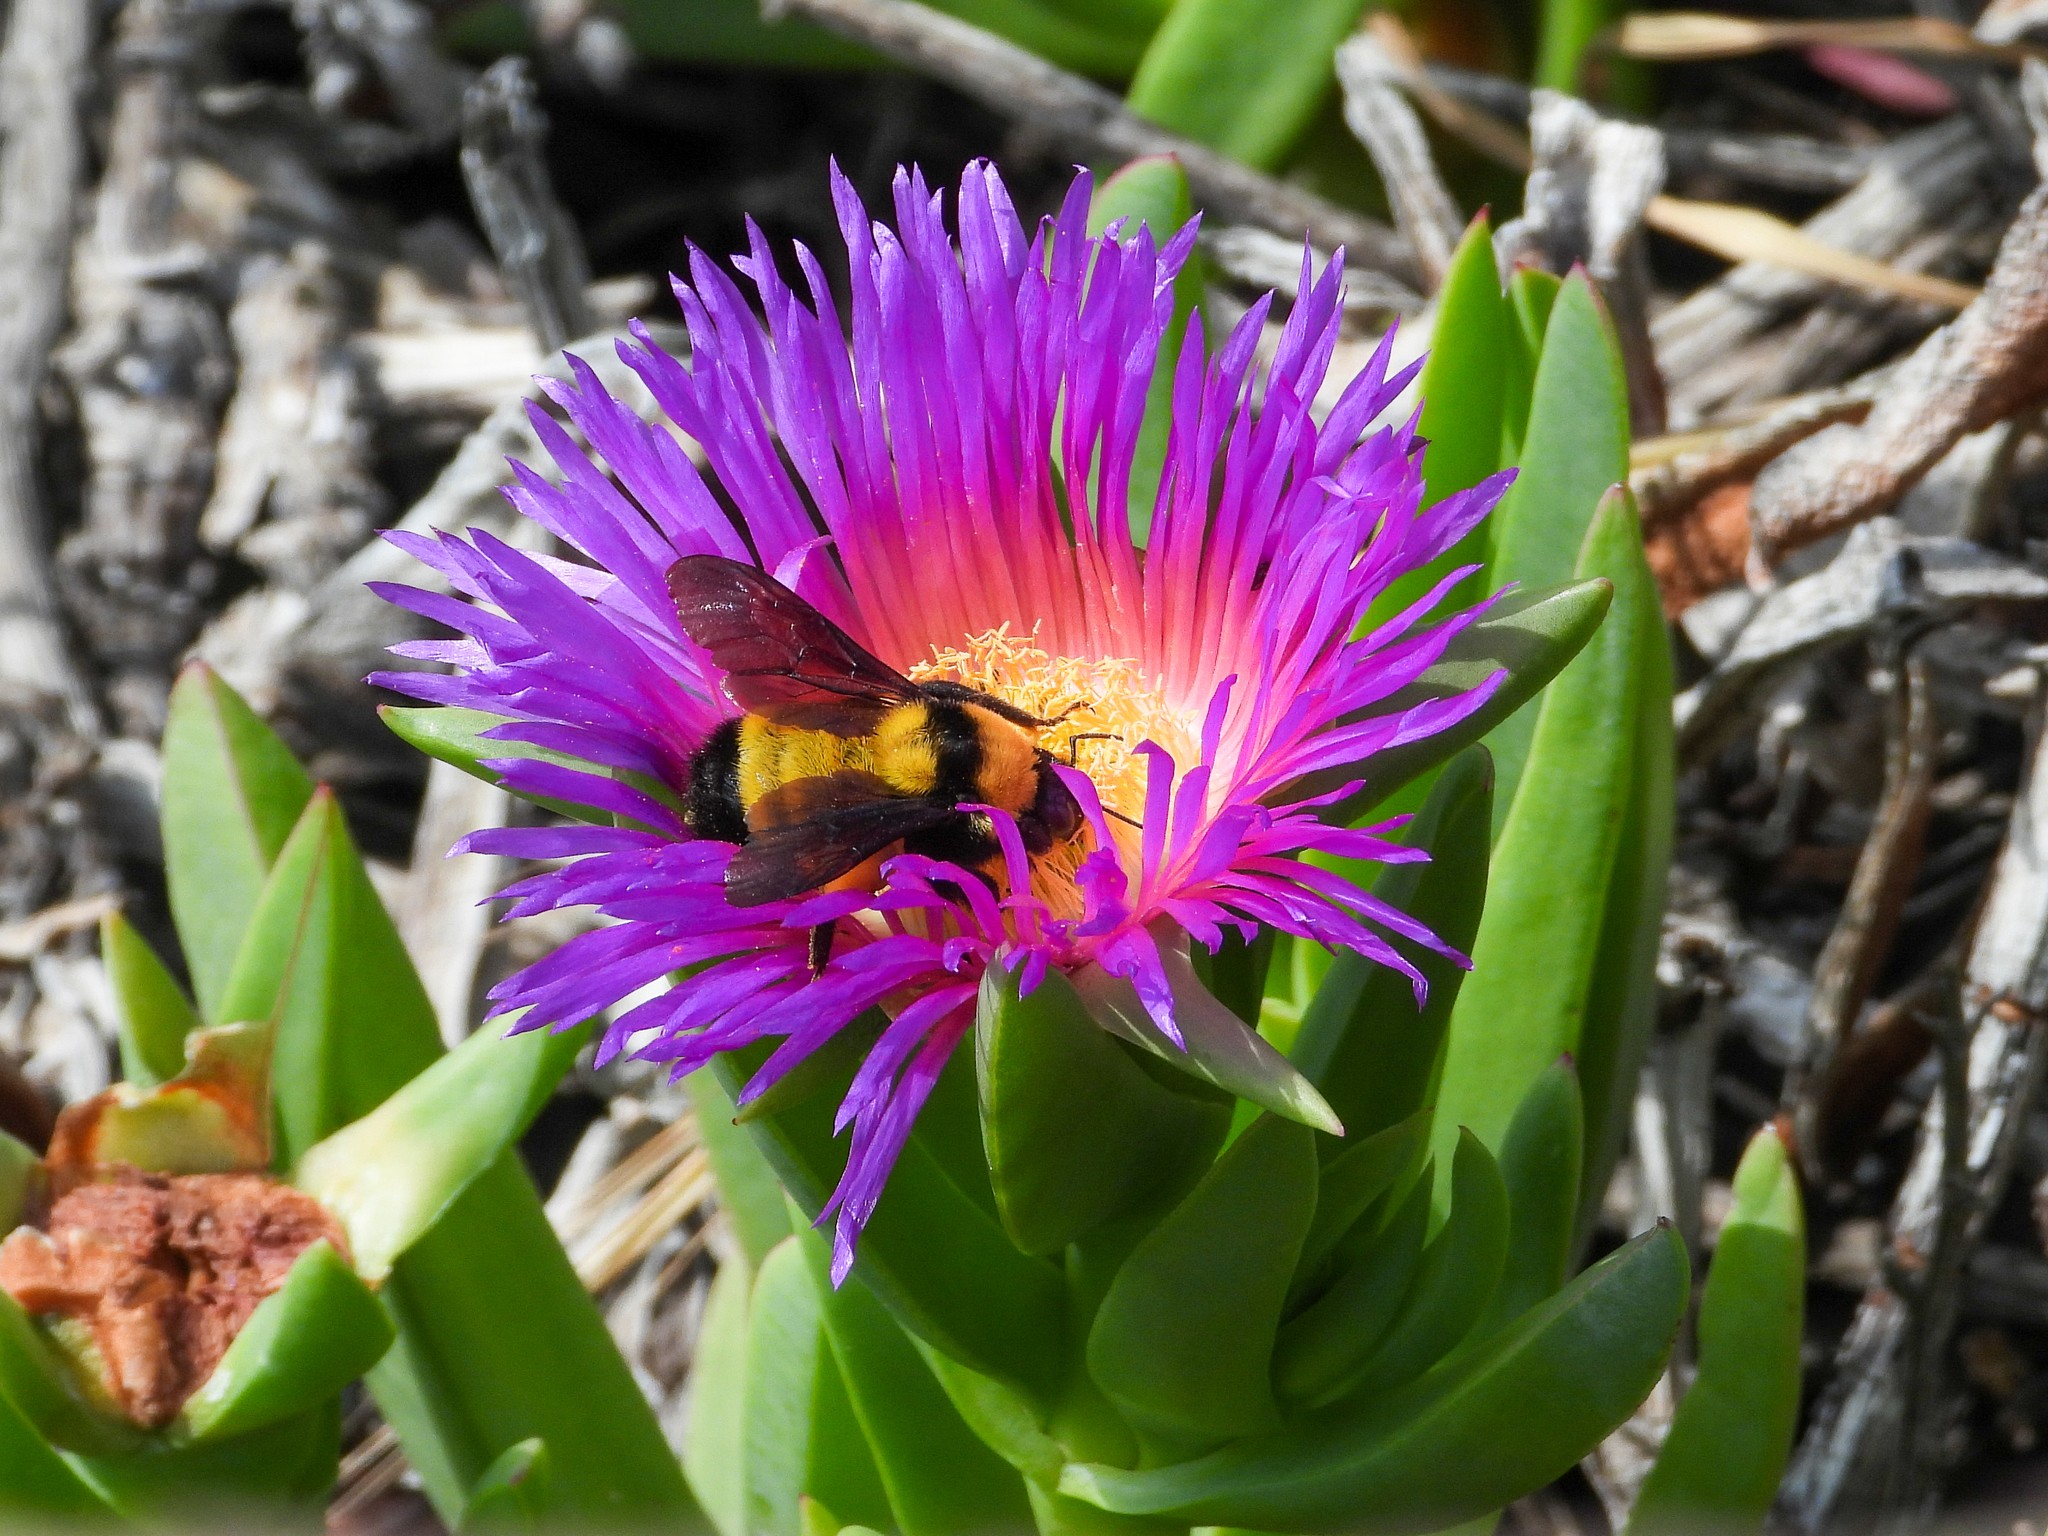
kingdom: Animalia
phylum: Arthropoda
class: Insecta
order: Hymenoptera
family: Apidae
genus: Bombus
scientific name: Bombus sonorus
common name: Sonoran bumble bee
